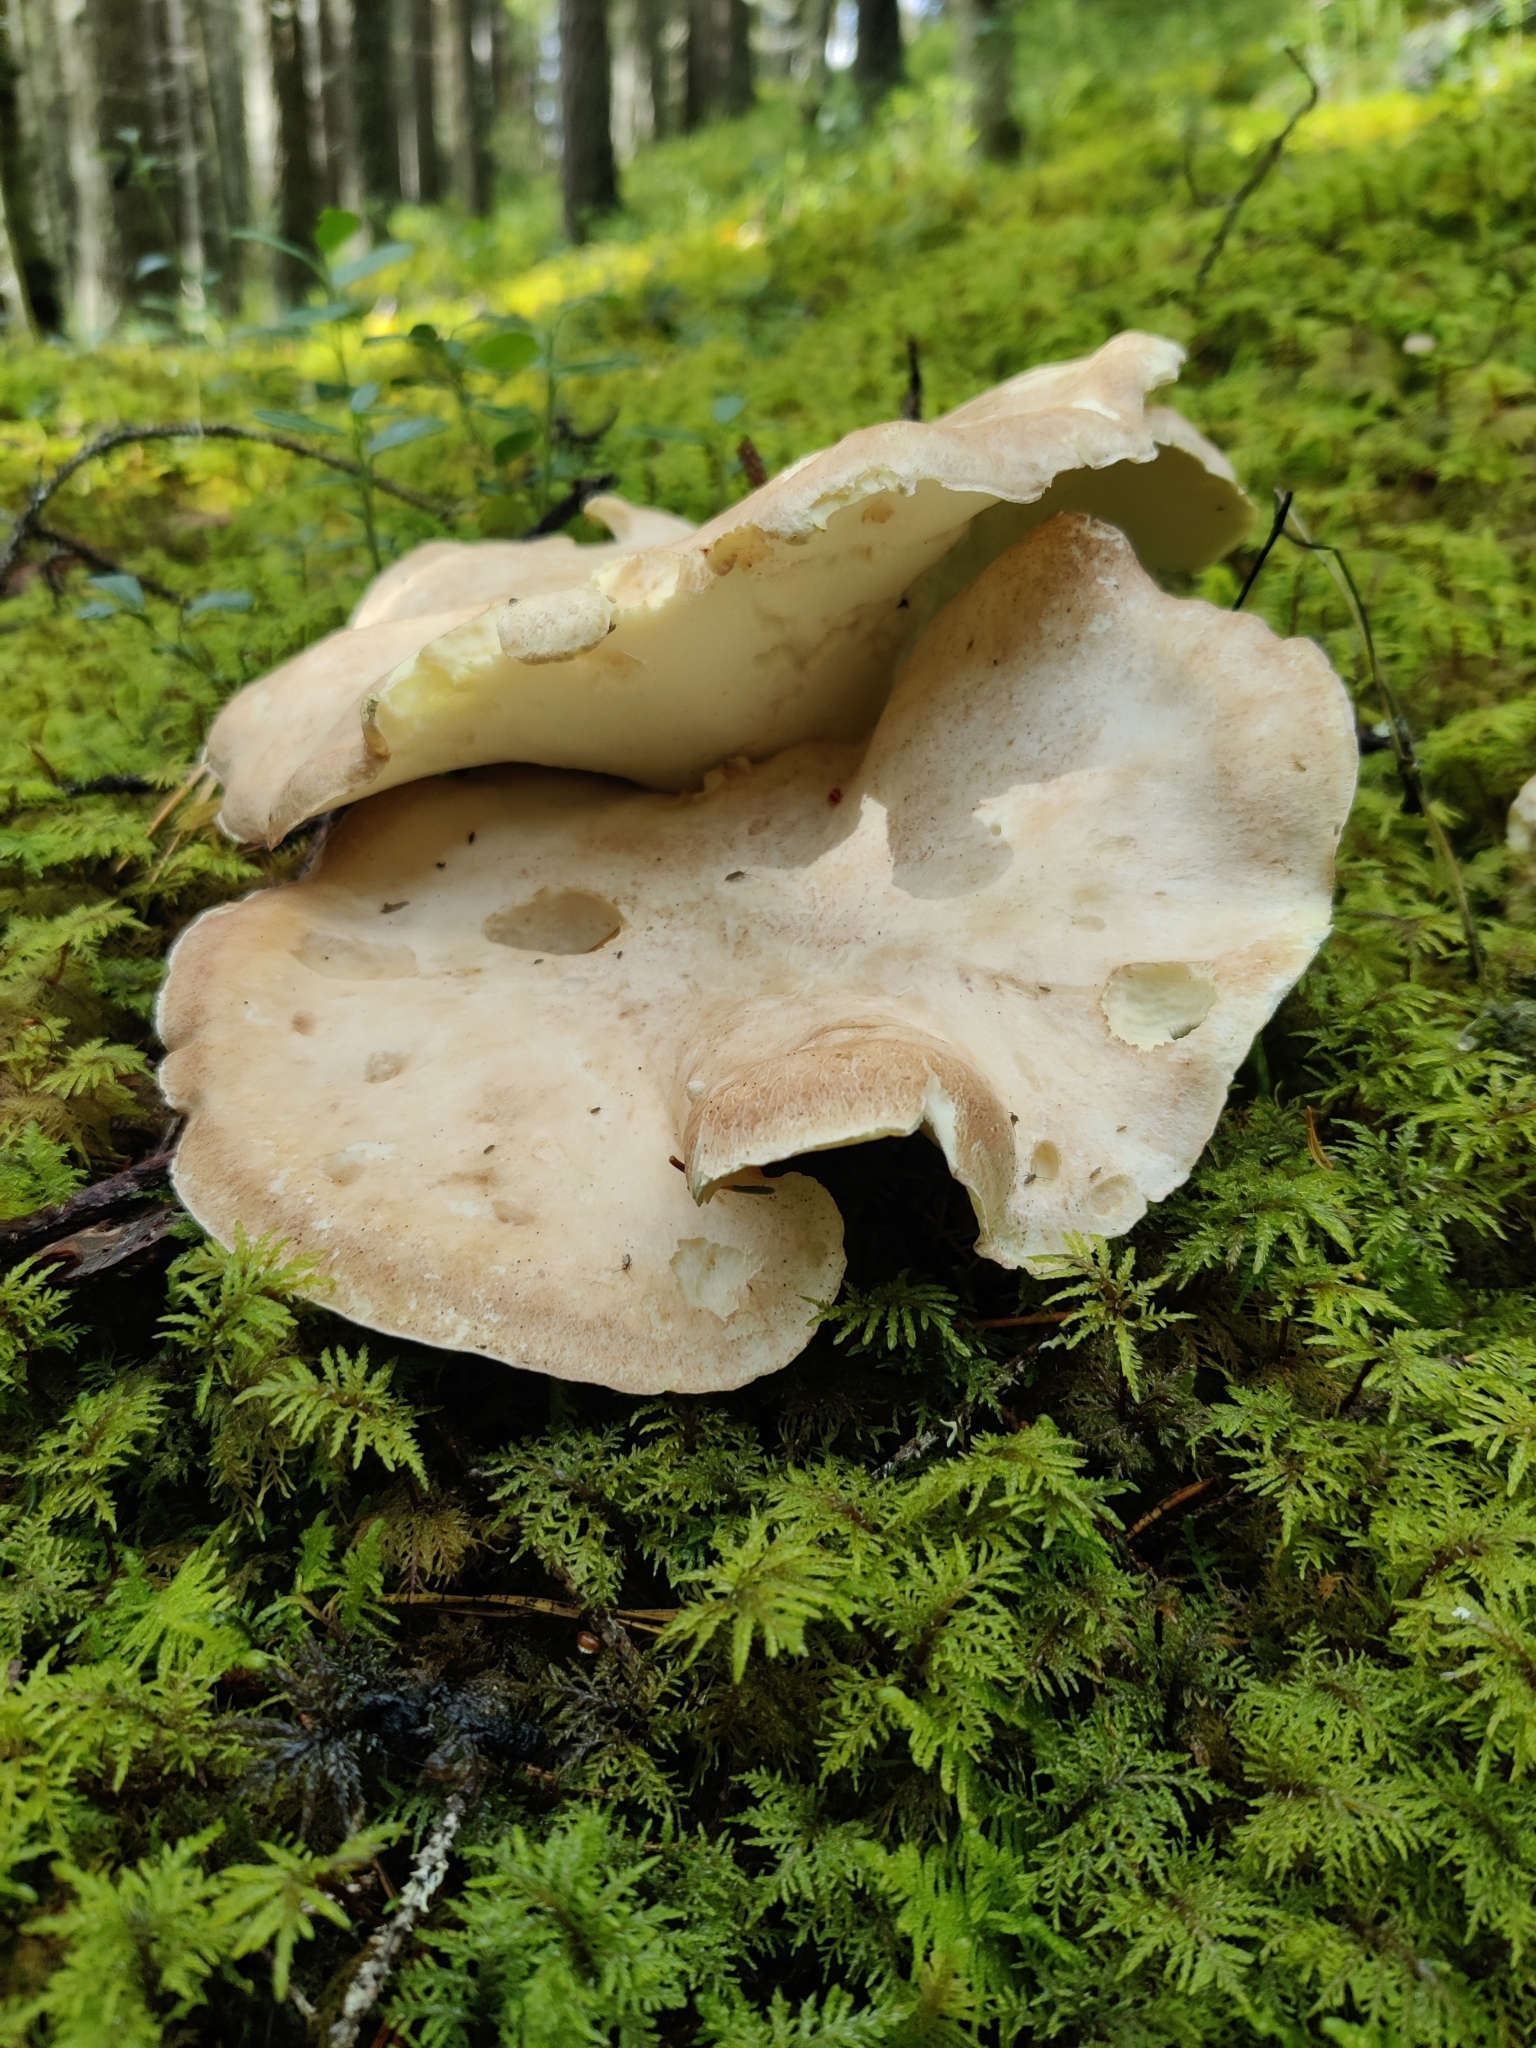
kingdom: Fungi
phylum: Basidiomycota
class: Agaricomycetes
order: Russulales
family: Albatrellaceae
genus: Albatrellus
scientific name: Albatrellus ovinus
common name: Forest lamb
